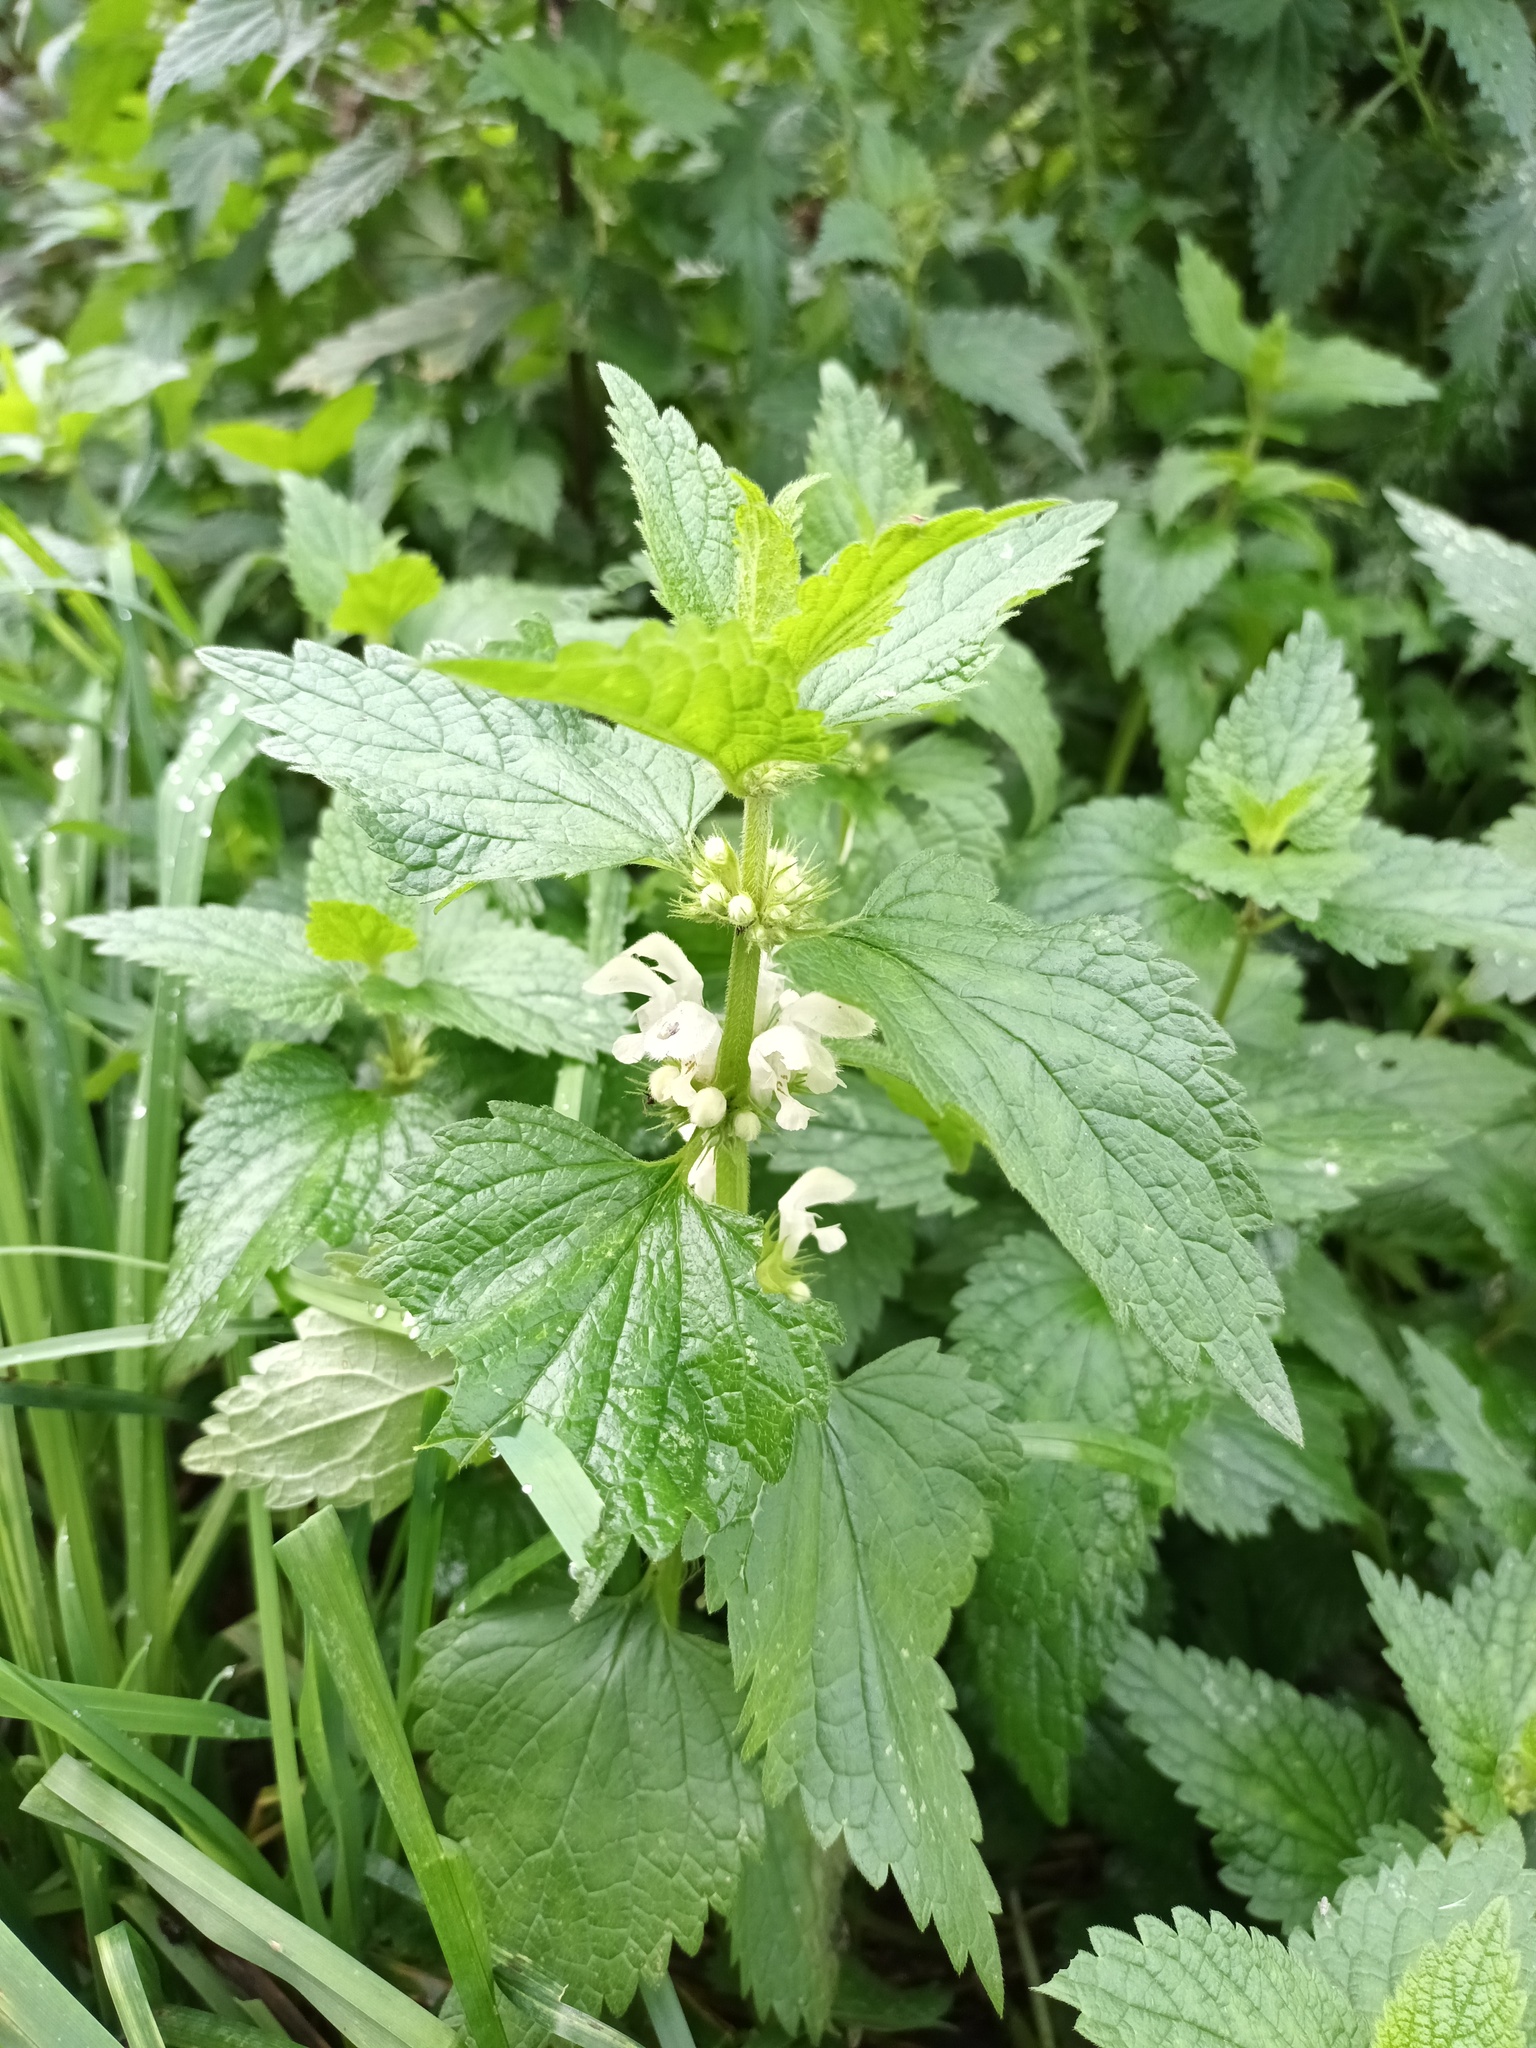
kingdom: Plantae
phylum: Tracheophyta
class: Magnoliopsida
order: Lamiales
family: Lamiaceae
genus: Lamium
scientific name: Lamium album
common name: White dead-nettle
